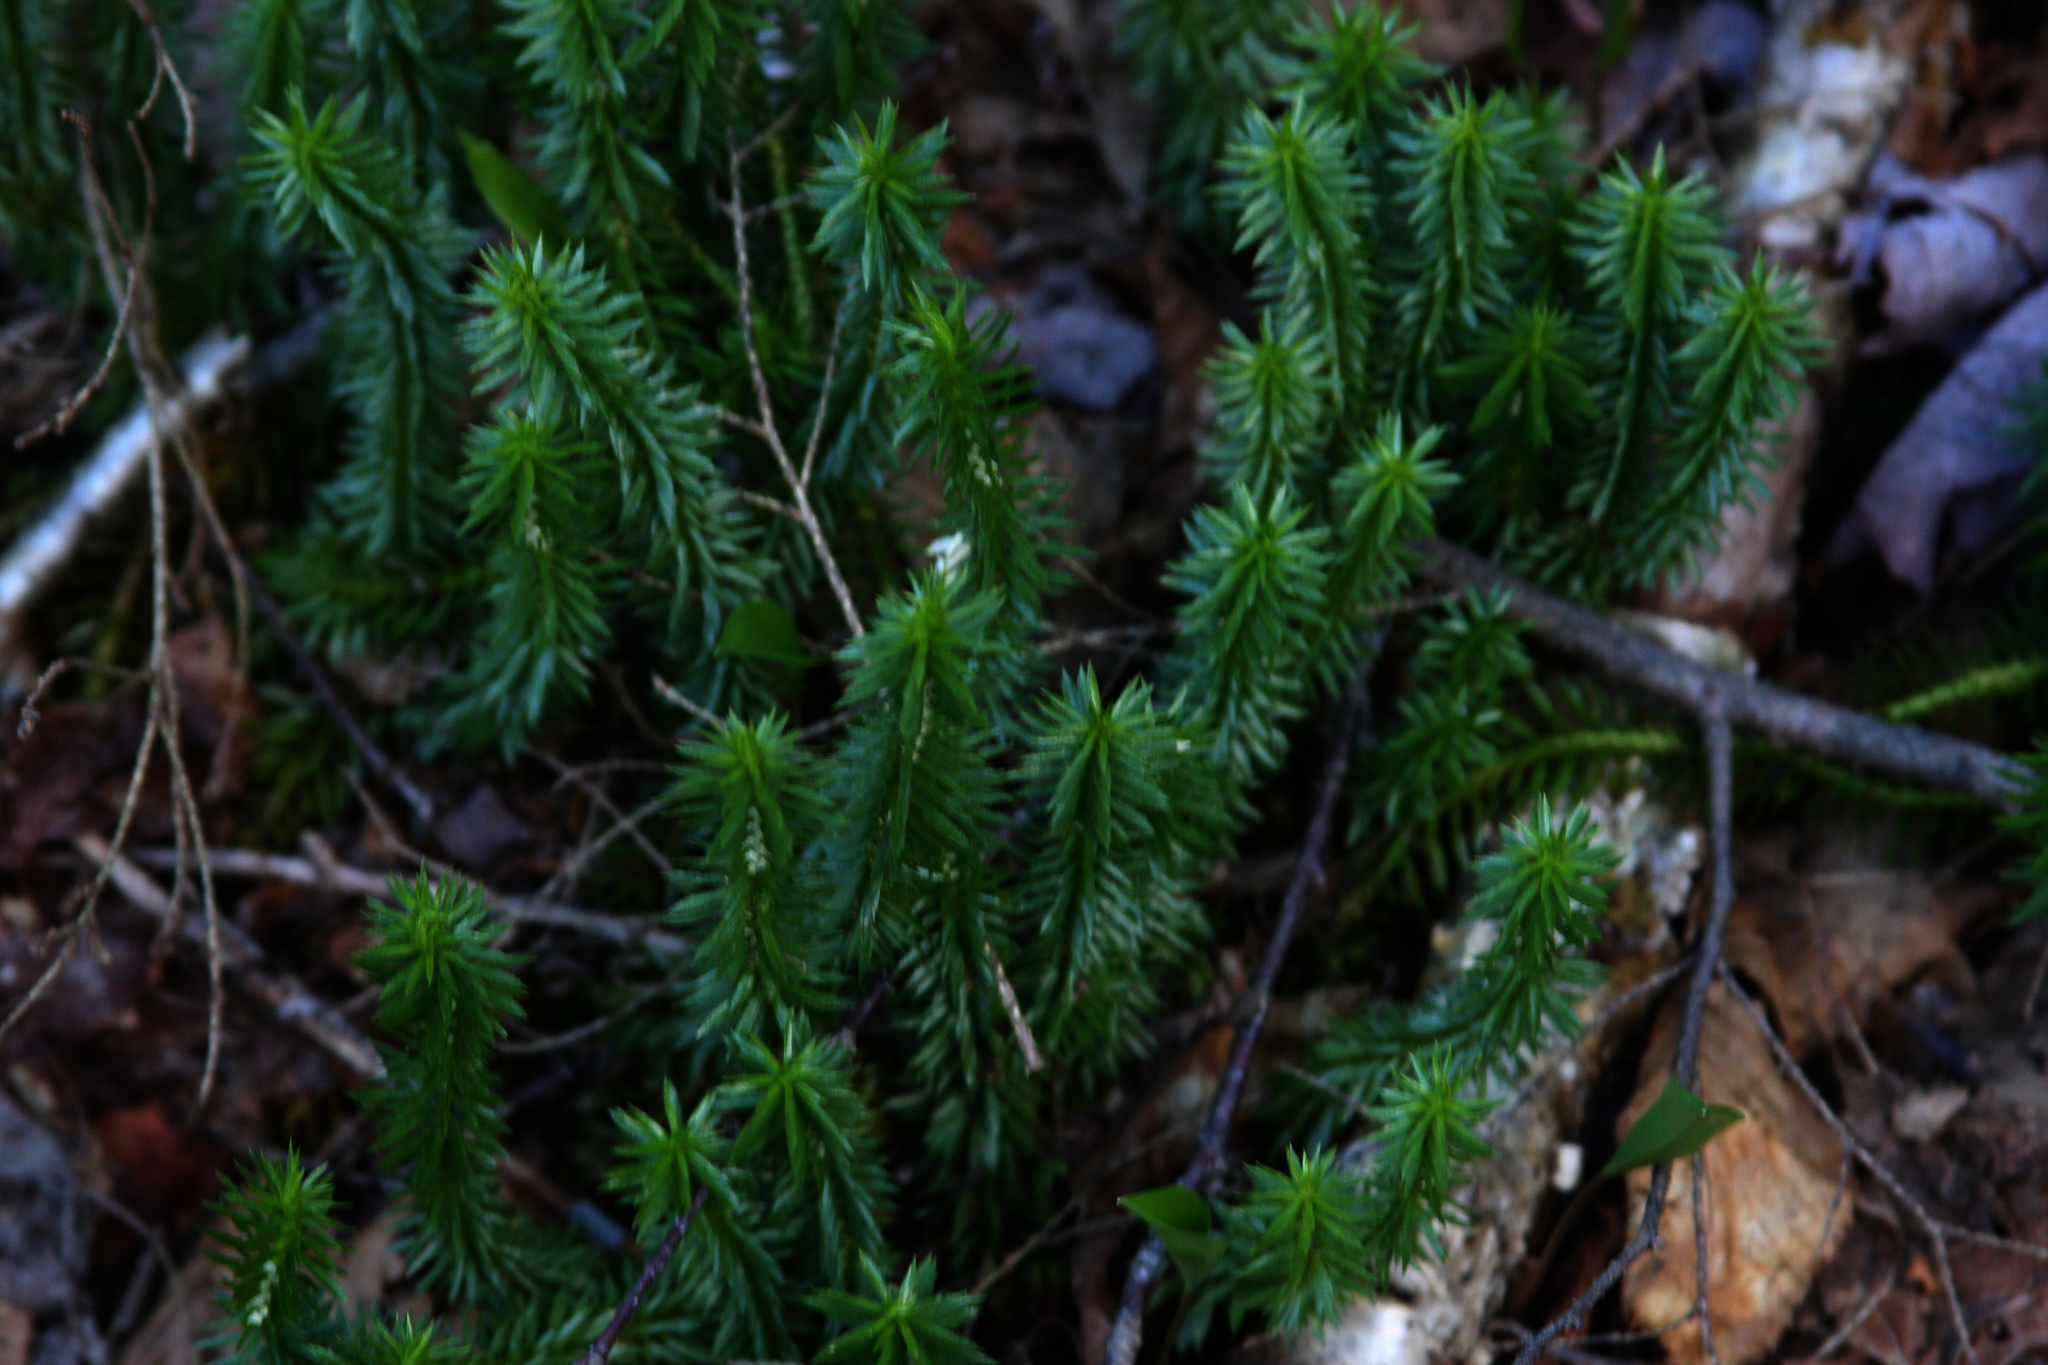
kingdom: Plantae
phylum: Tracheophyta
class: Lycopodiopsida
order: Lycopodiales
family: Lycopodiaceae
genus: Huperzia
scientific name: Huperzia lucidula
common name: Shining clubmoss
